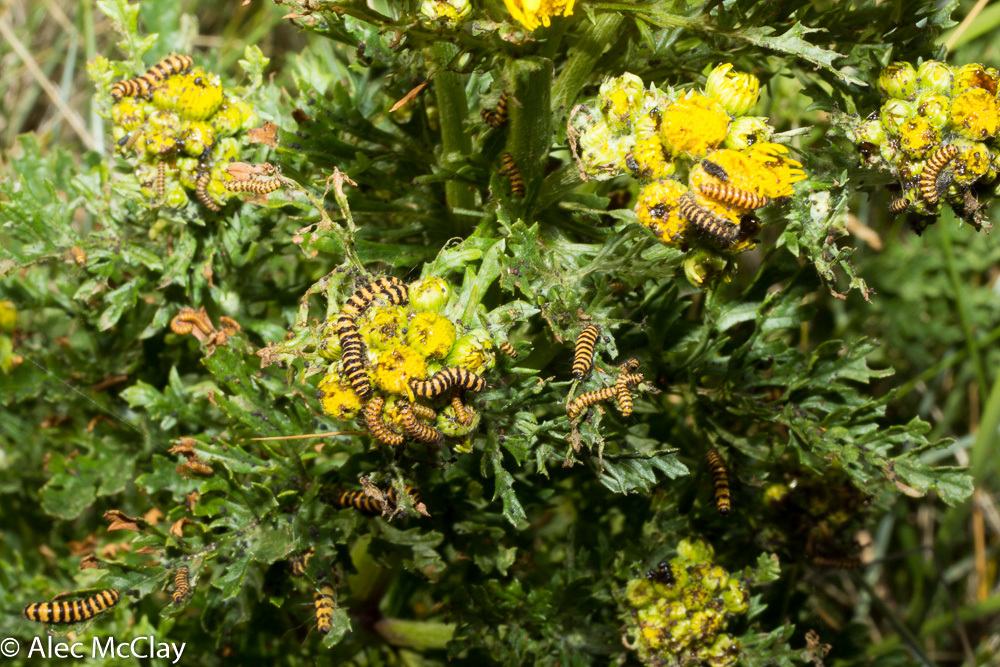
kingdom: Animalia
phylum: Arthropoda
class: Insecta
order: Lepidoptera
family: Erebidae
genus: Tyria
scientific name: Tyria jacobaeae
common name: Cinnabar
